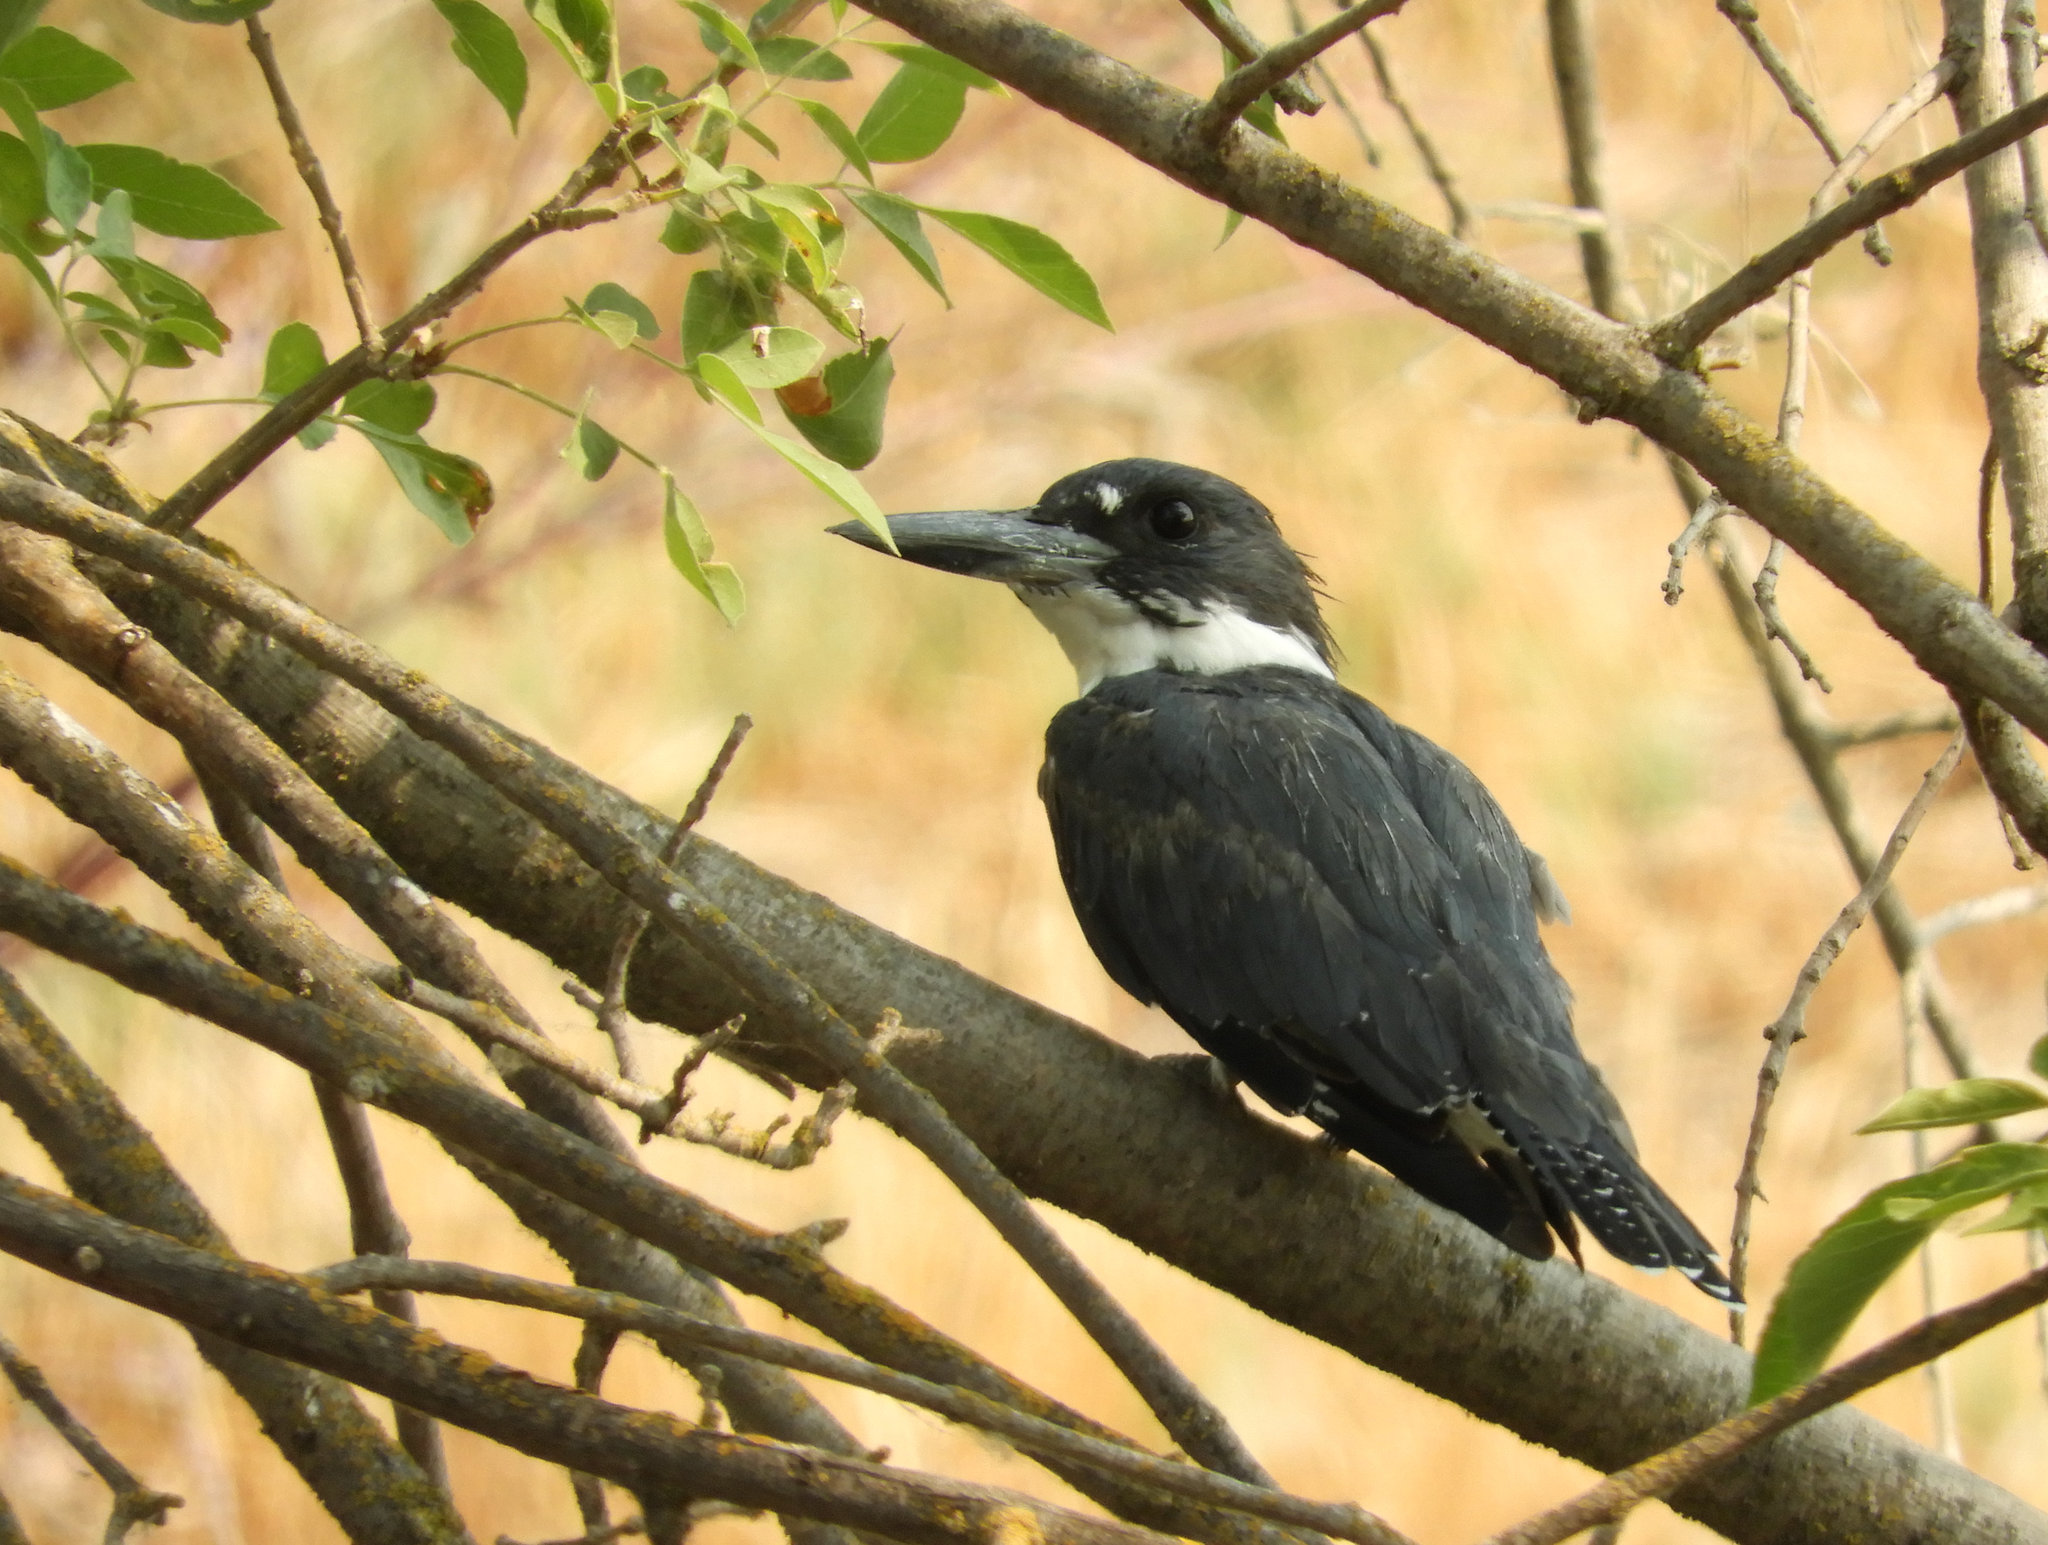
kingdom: Animalia
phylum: Chordata
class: Aves
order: Coraciiformes
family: Alcedinidae
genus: Megaceryle
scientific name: Megaceryle alcyon
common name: Belted kingfisher
